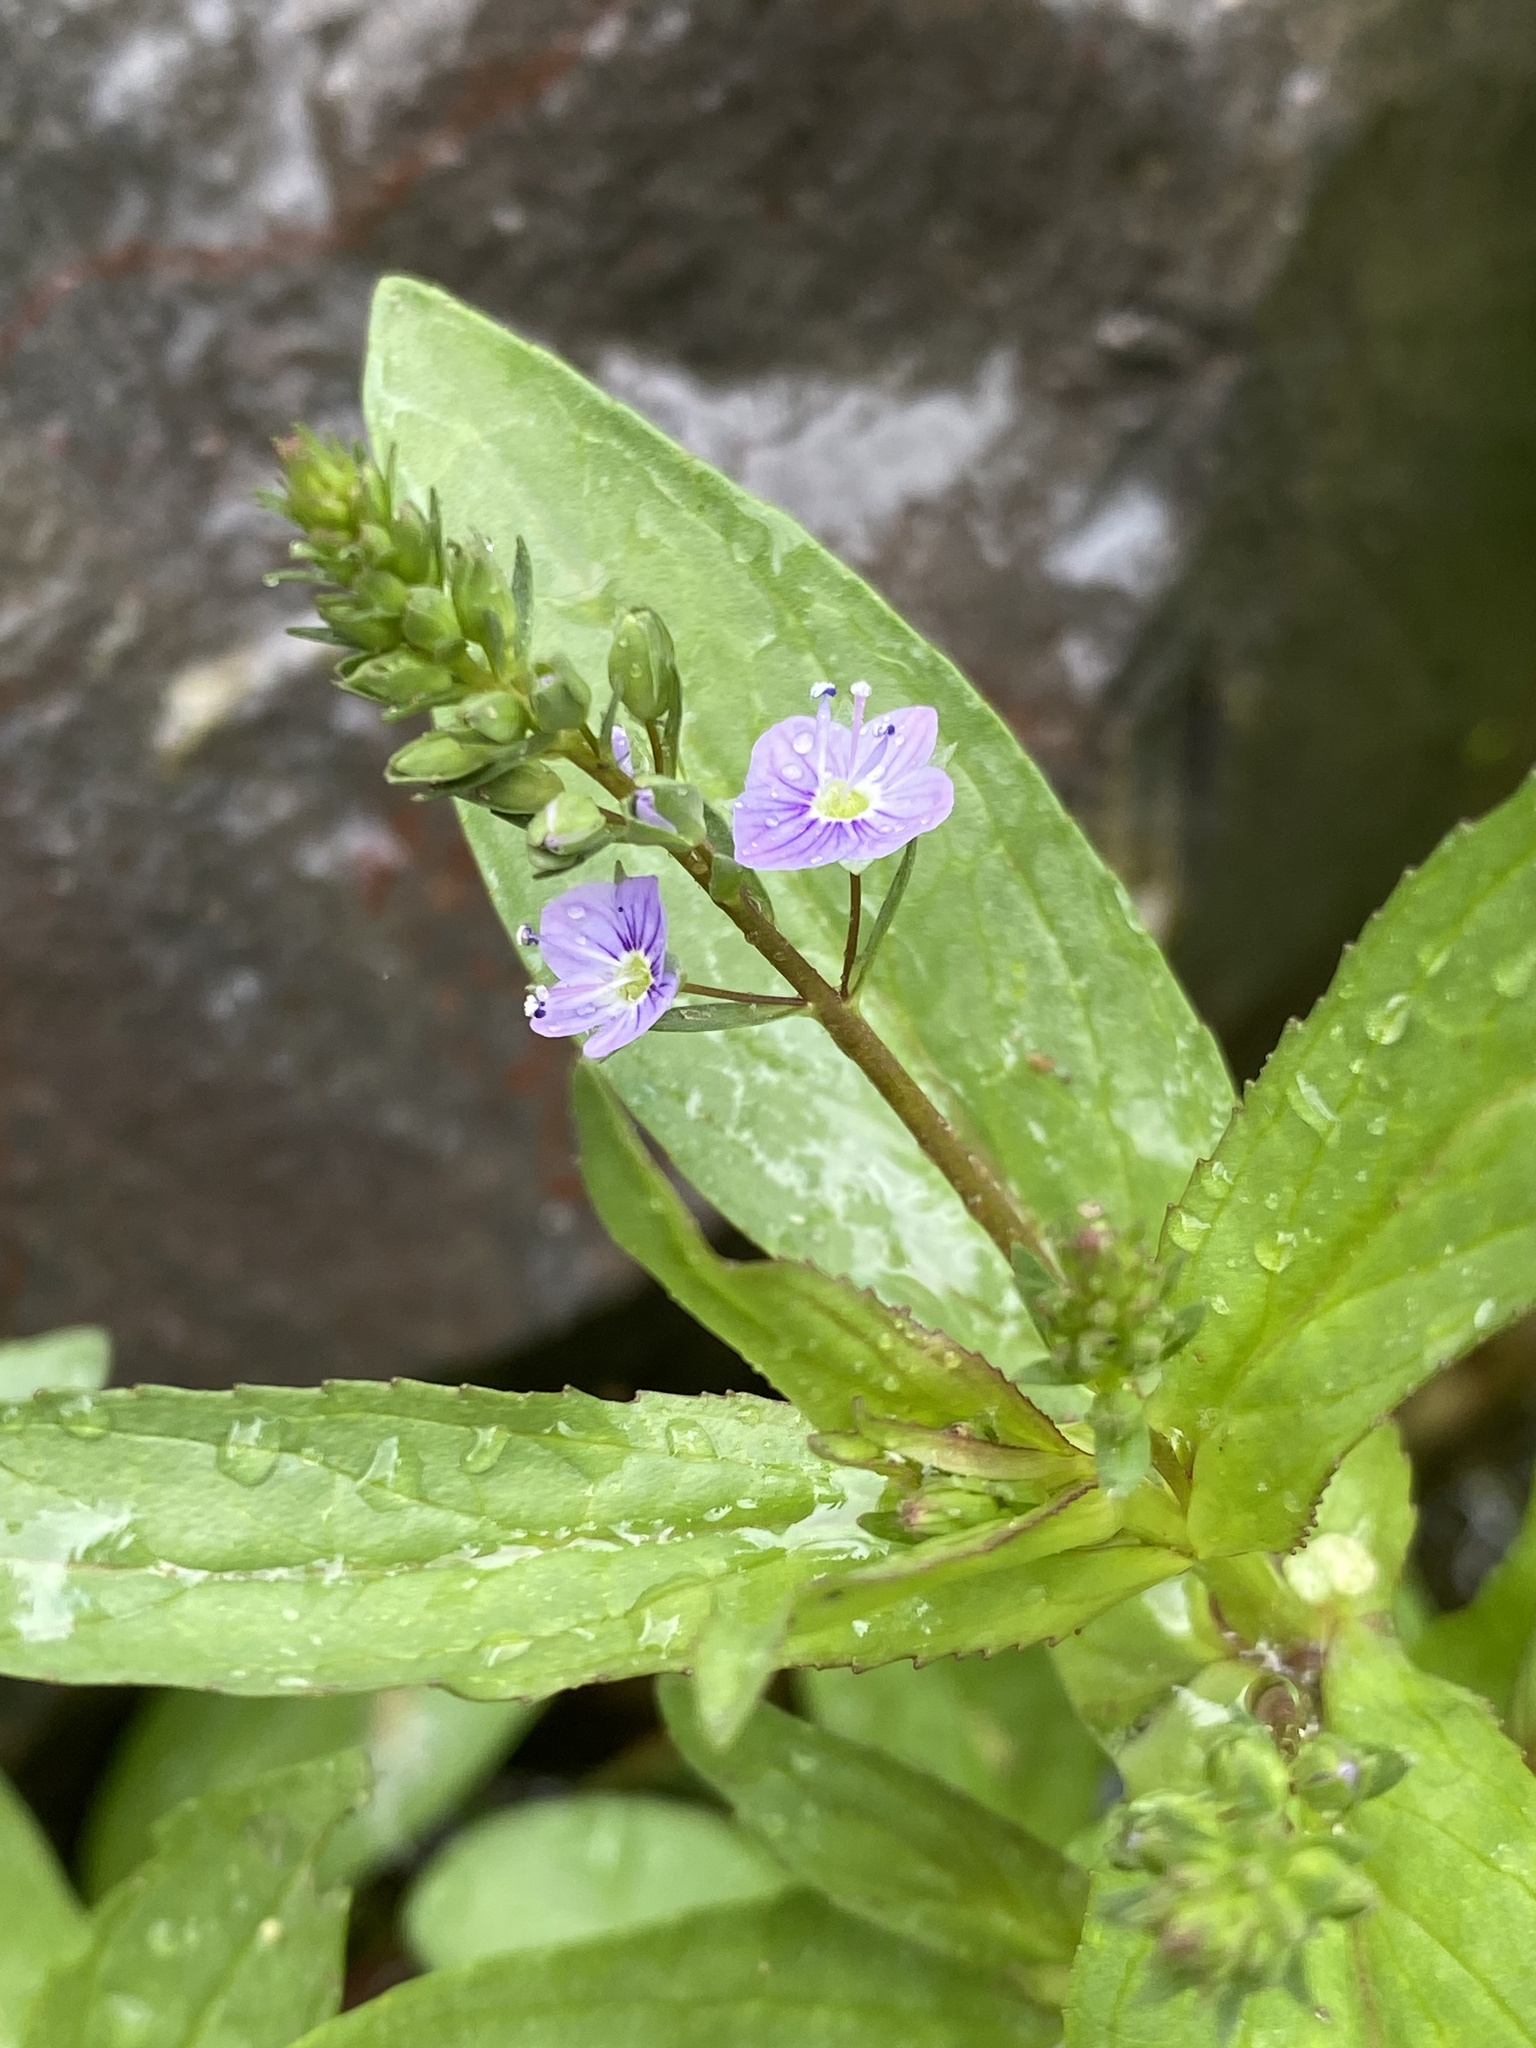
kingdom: Plantae
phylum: Tracheophyta
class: Magnoliopsida
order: Lamiales
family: Plantaginaceae
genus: Veronica
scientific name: Veronica anagallis-aquatica
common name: Water speedwell
